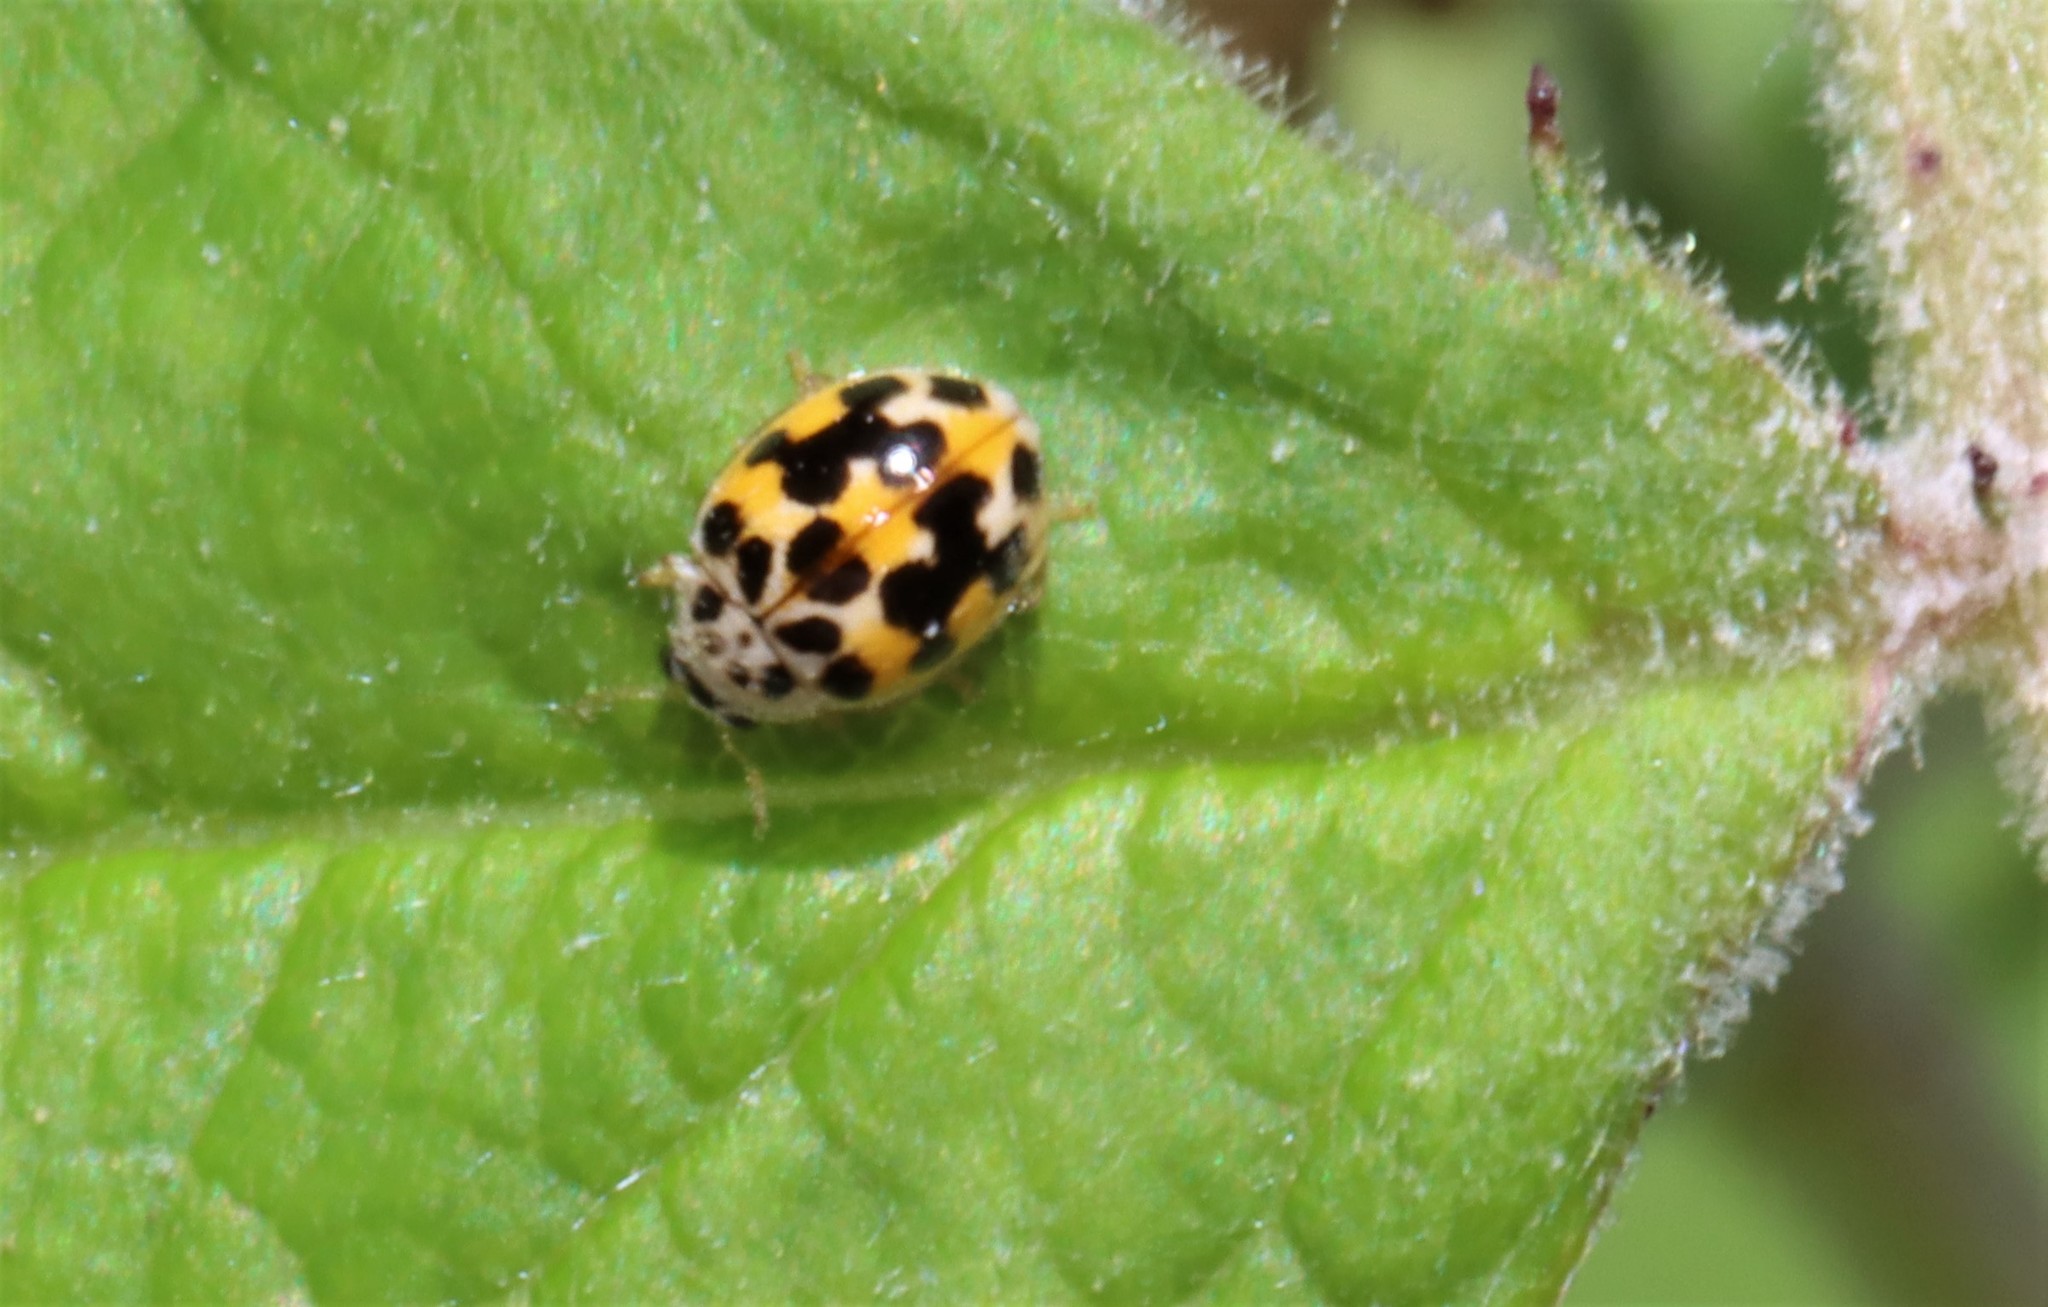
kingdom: Animalia
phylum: Arthropoda
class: Insecta
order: Coleoptera
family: Coccinellidae
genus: Psyllobora
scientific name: Psyllobora vigintimaculata
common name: Ladybird beetle
